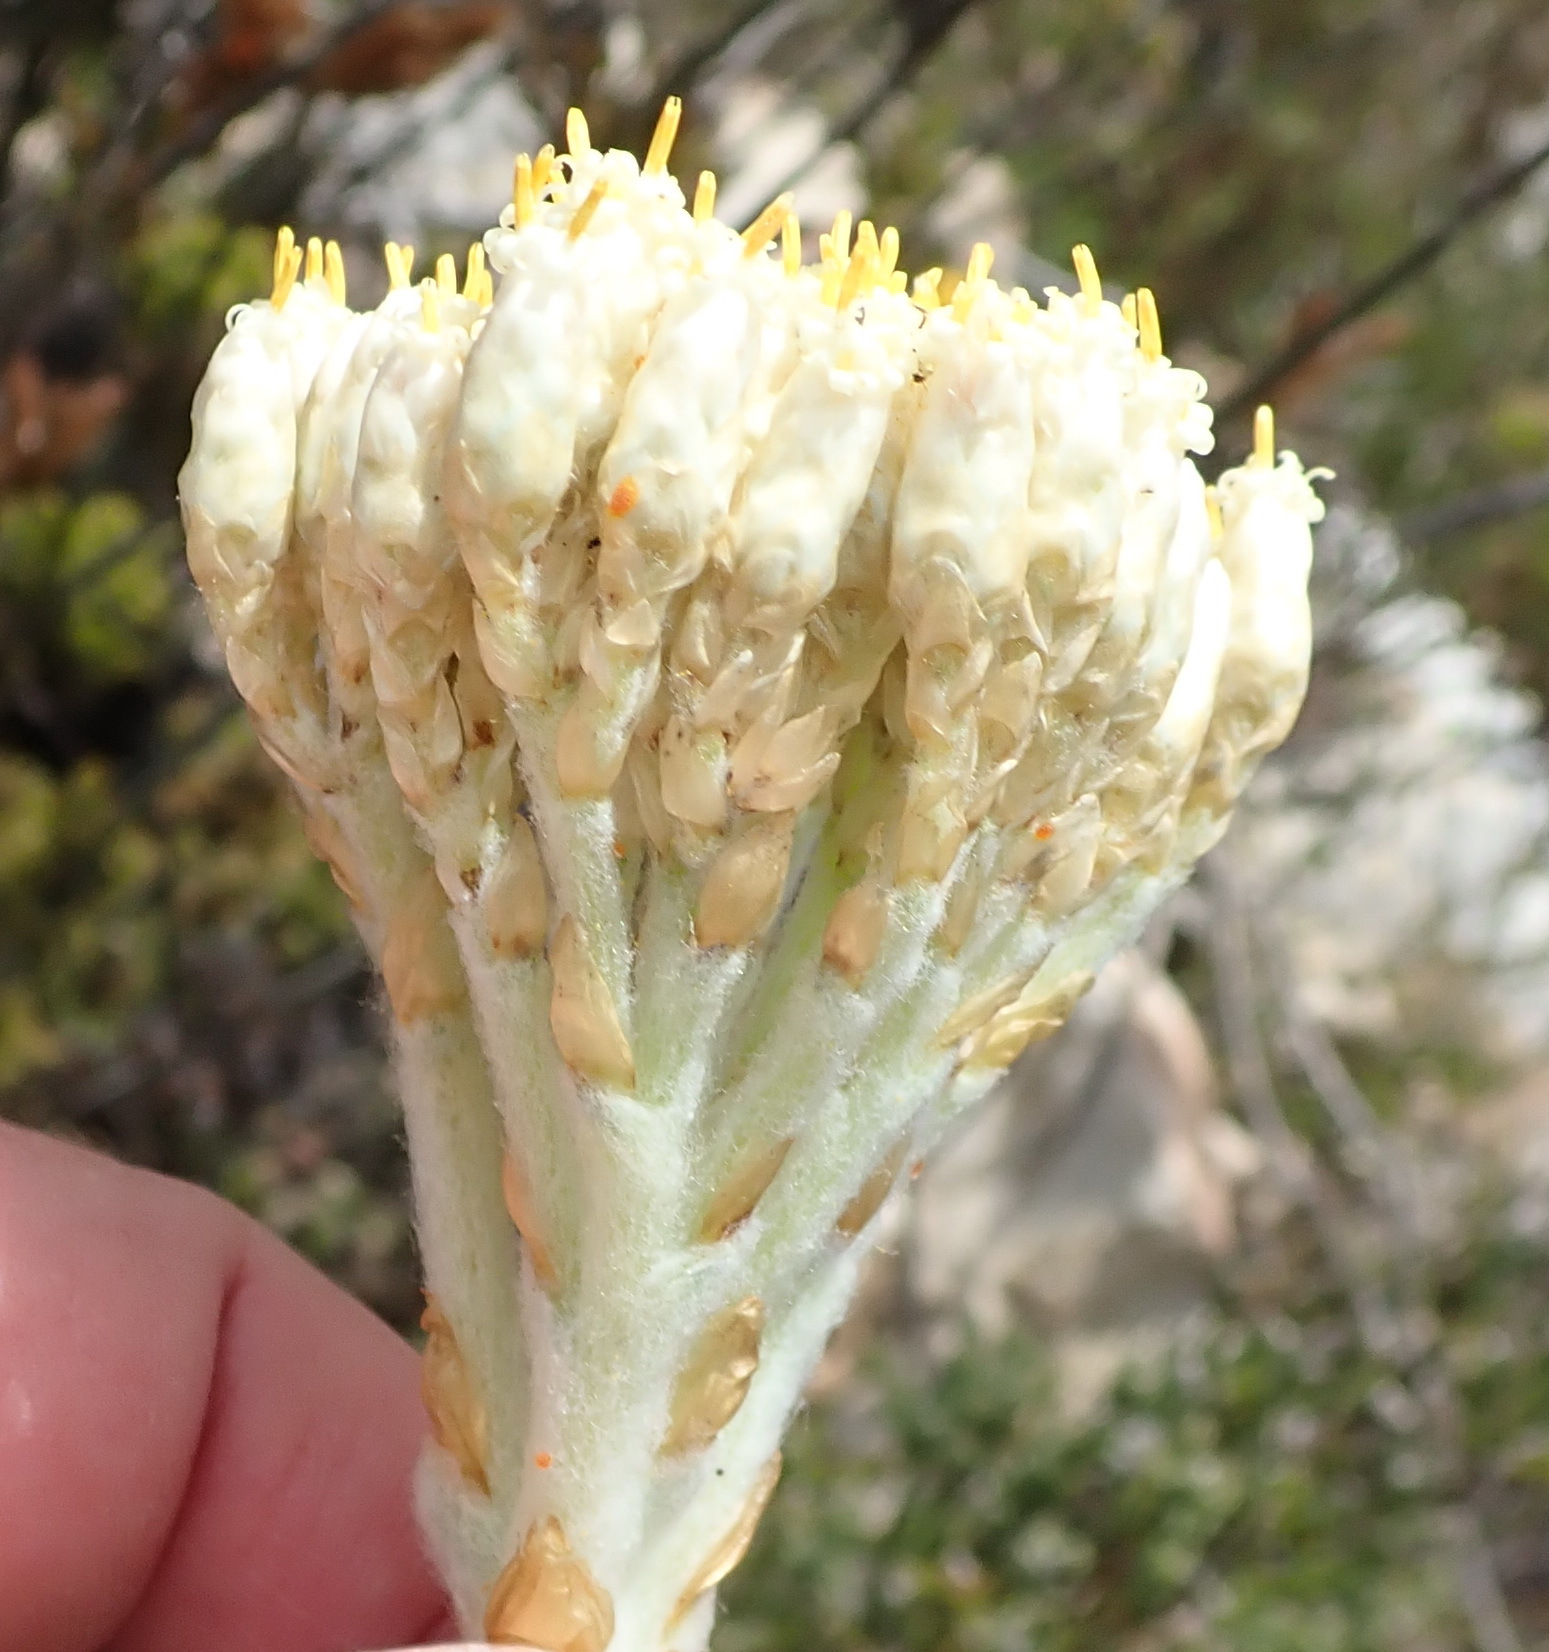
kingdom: Plantae
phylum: Tracheophyta
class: Magnoliopsida
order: Asterales
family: Asteraceae
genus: Syncarpha
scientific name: Syncarpha milleflora
